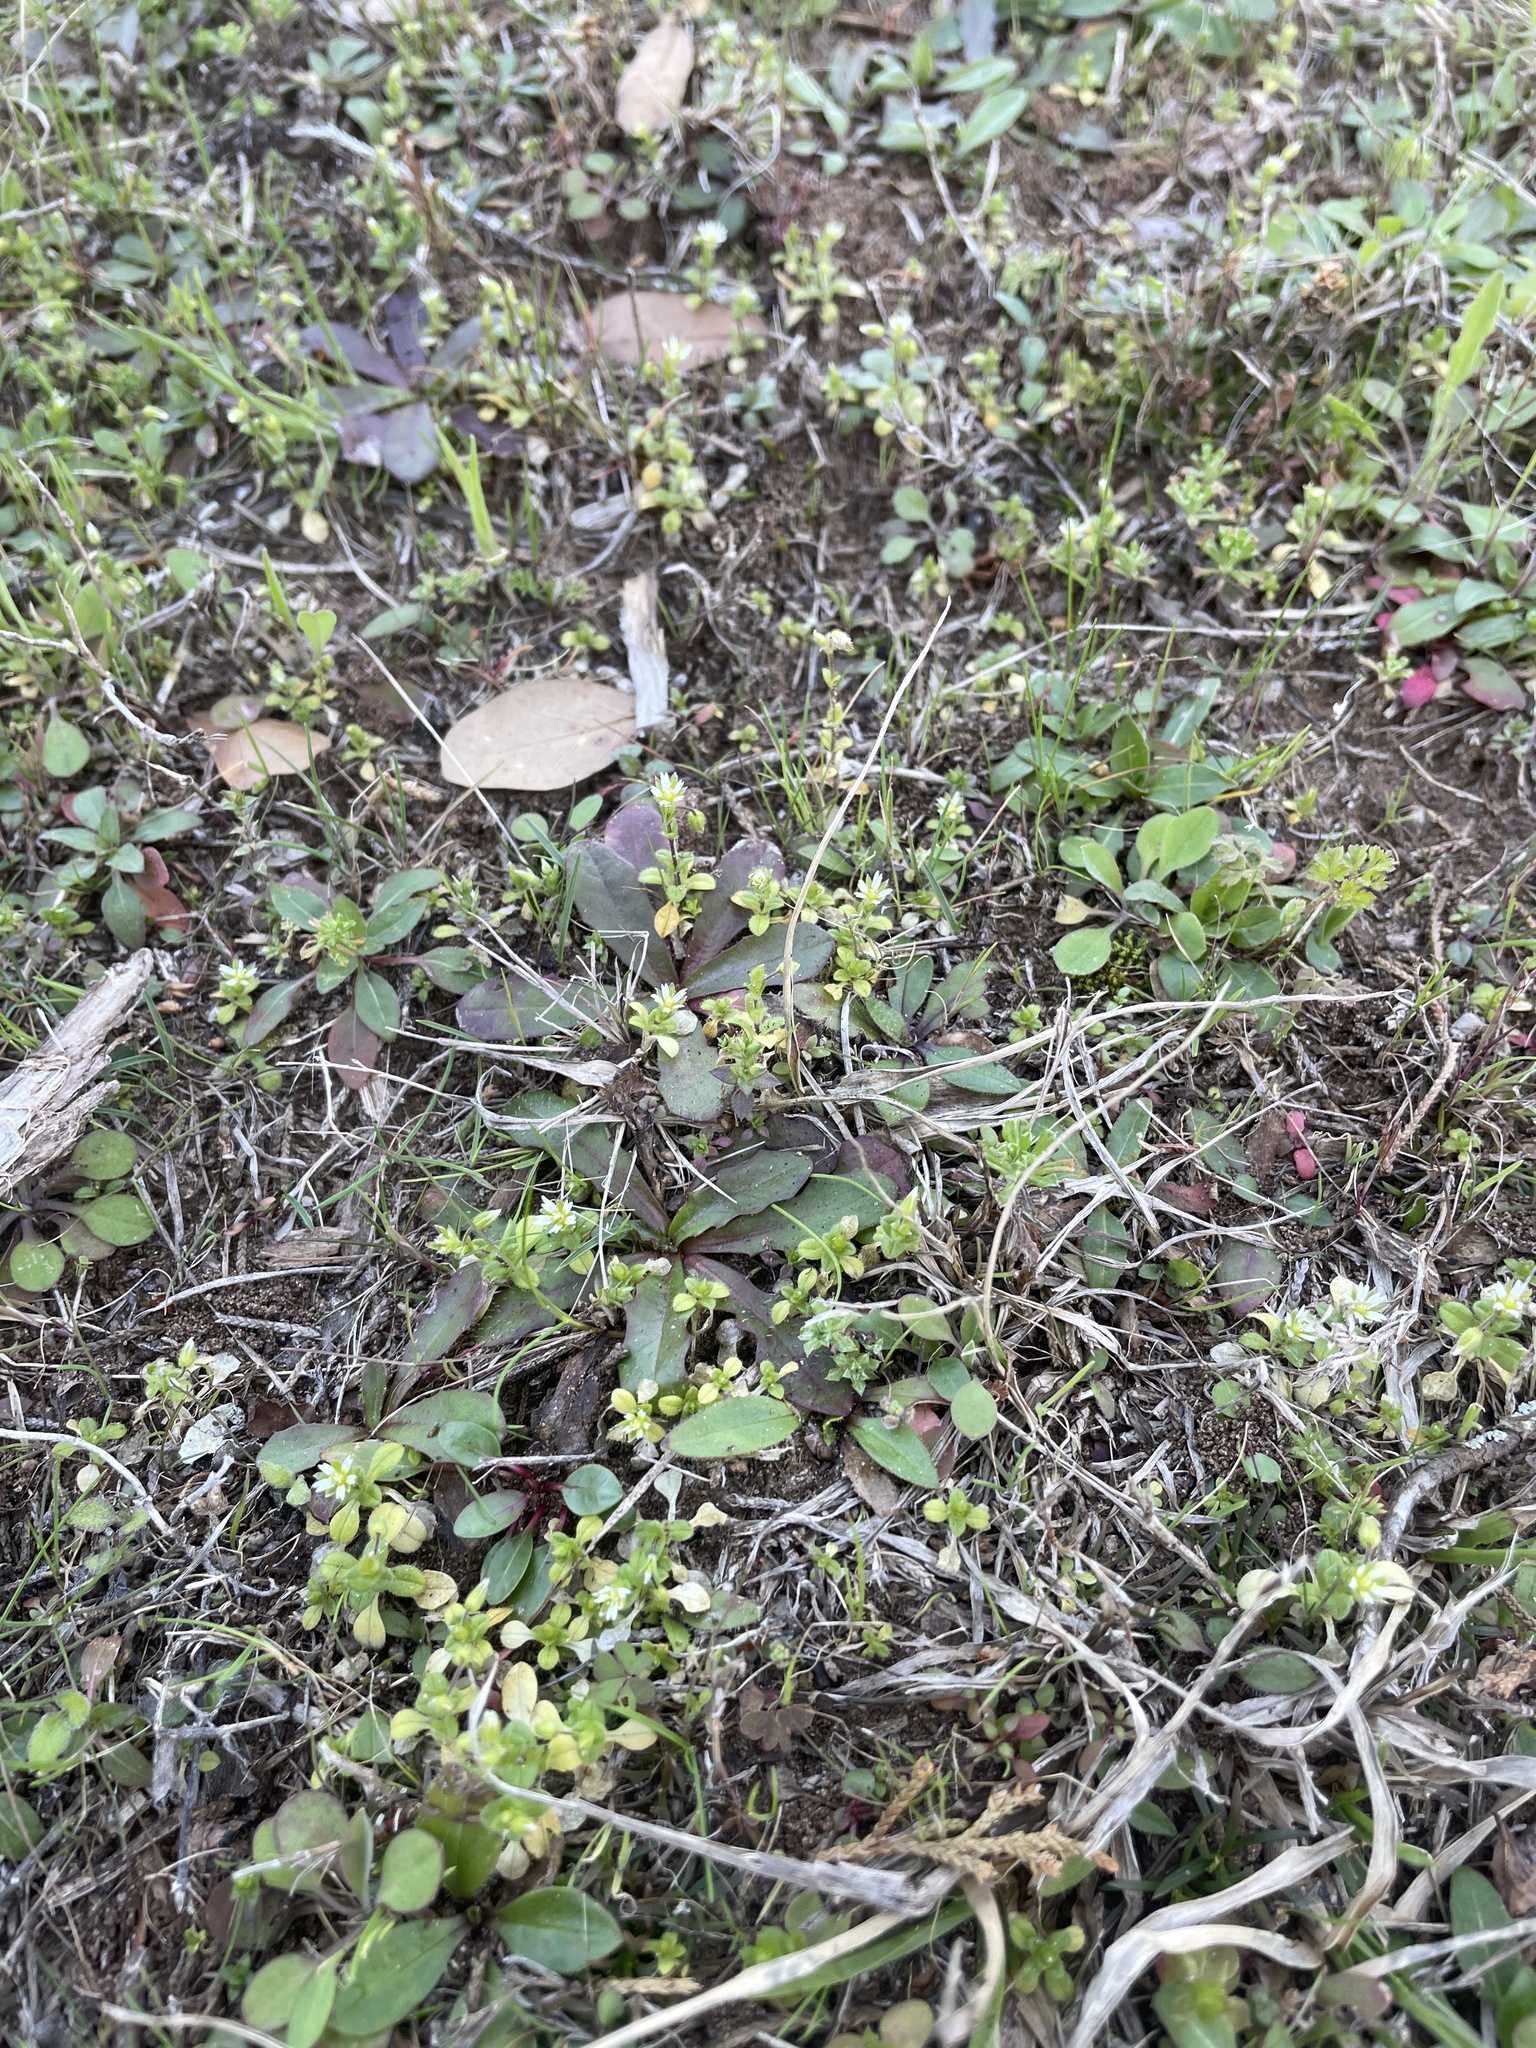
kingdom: Plantae
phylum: Tracheophyta
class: Magnoliopsida
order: Caryophyllales
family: Caryophyllaceae
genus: Cerastium
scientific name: Cerastium semidecandrum
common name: Little mouse-ear
